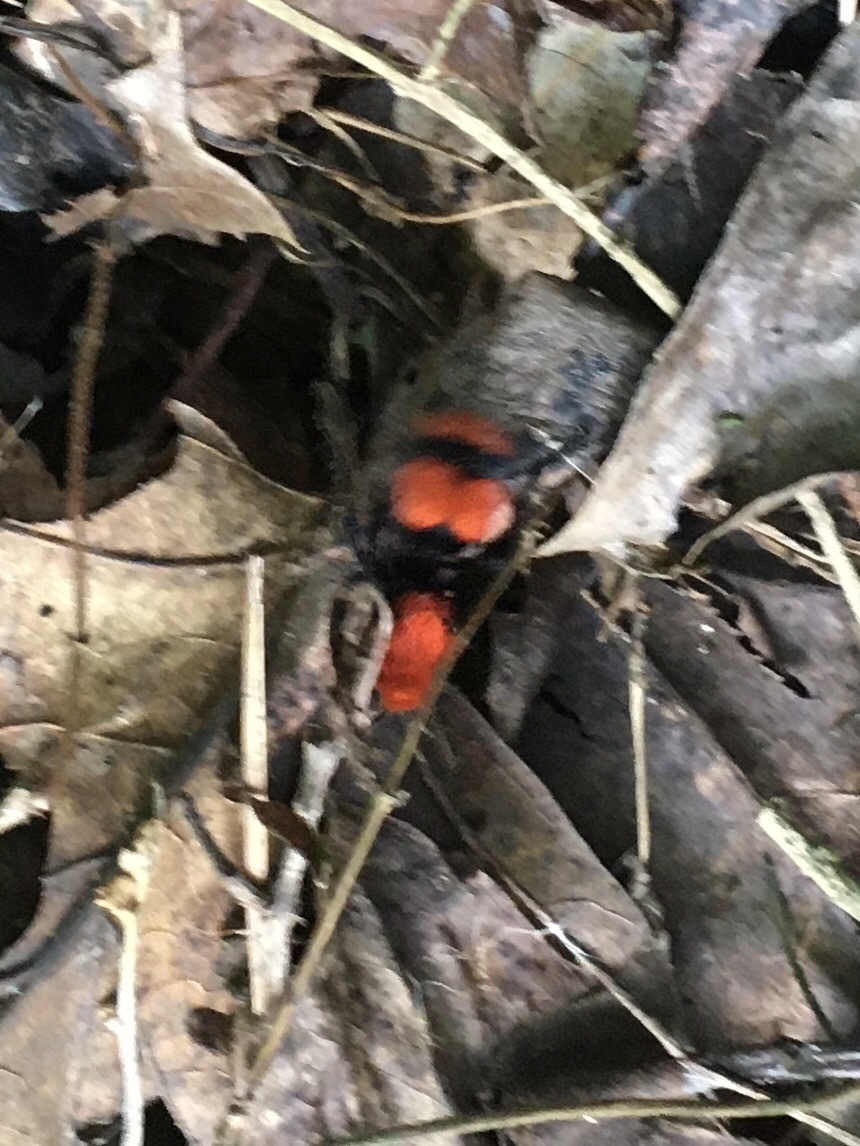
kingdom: Animalia
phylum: Arthropoda
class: Insecta
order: Hymenoptera
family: Mutillidae
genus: Dasymutilla
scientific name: Dasymutilla occidentalis
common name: Common eastern velvet ant
